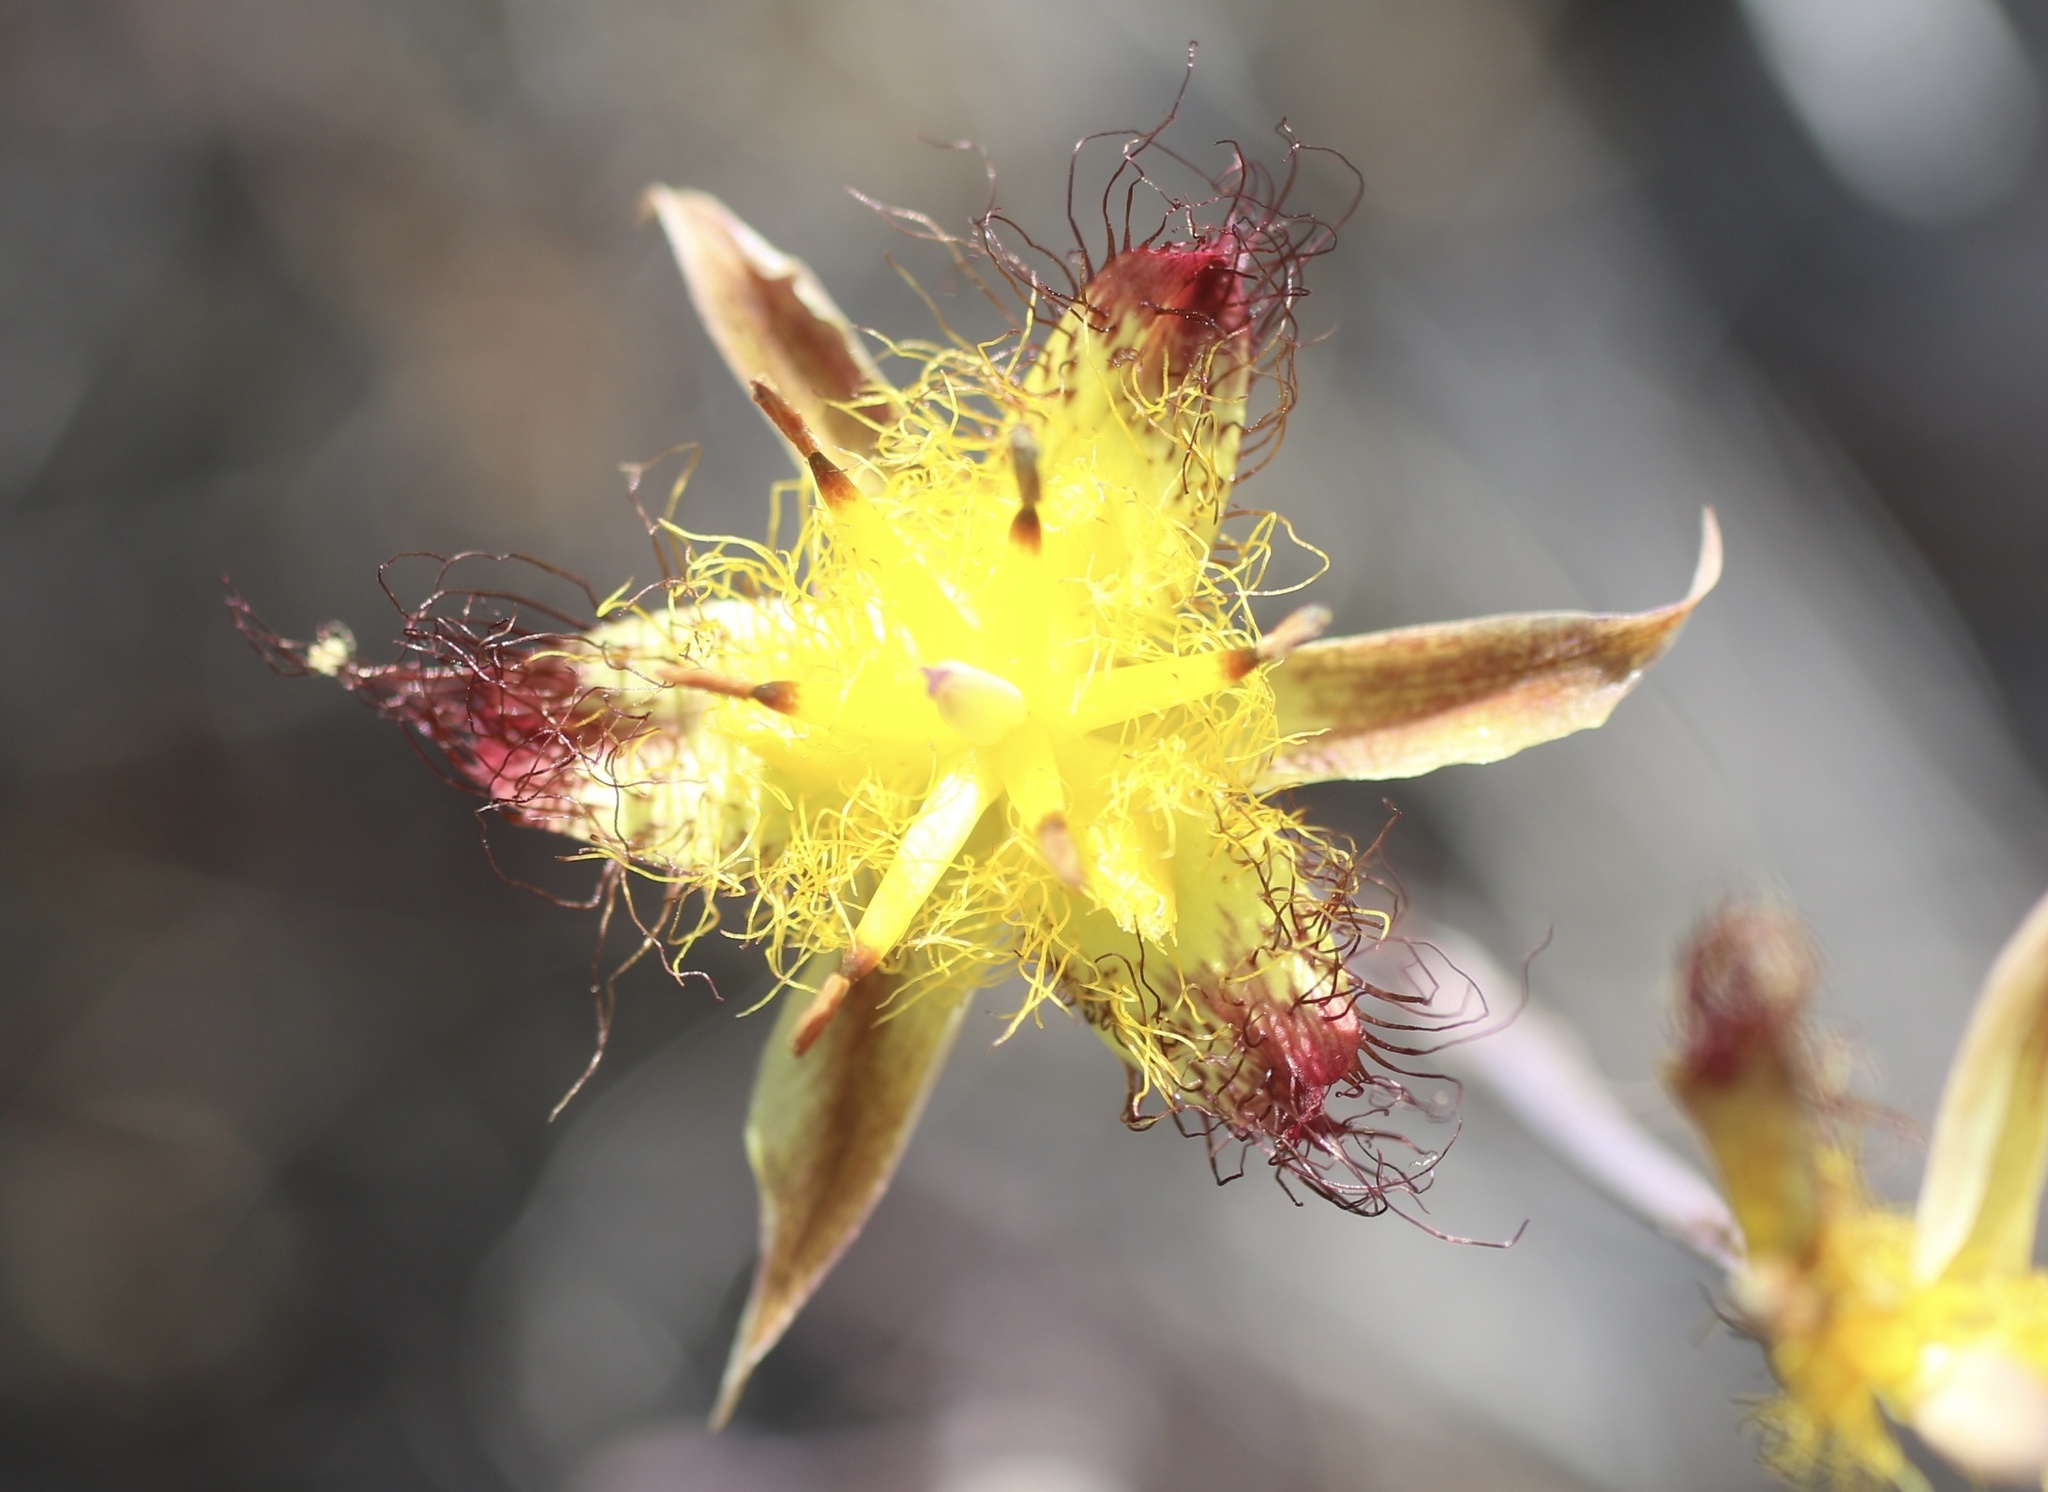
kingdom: Plantae
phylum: Tracheophyta
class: Liliopsida
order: Liliales
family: Liliaceae
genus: Calochortus
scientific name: Calochortus obispoensis
